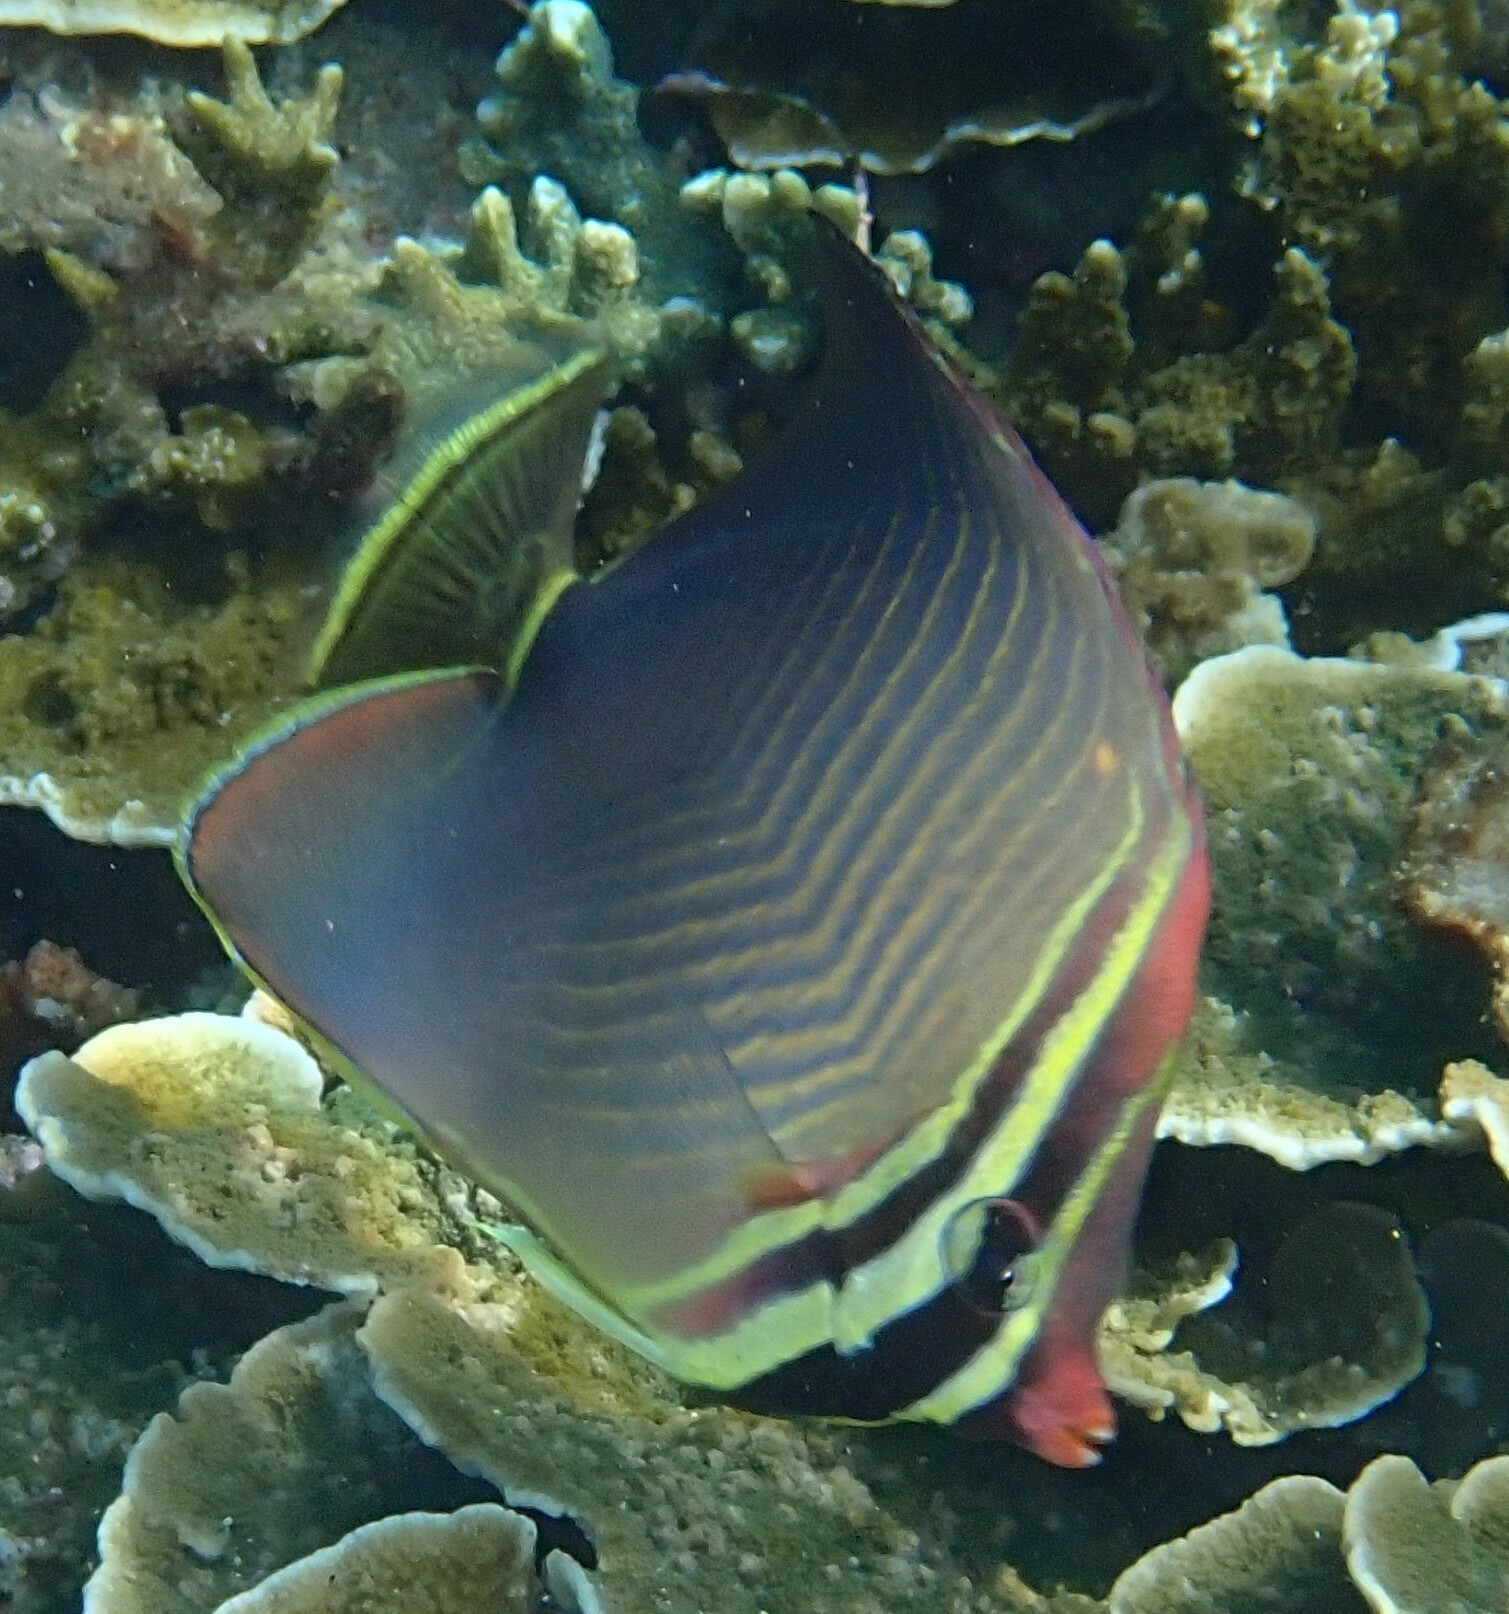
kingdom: Animalia
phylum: Chordata
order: Perciformes
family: Chaetodontidae
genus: Chaetodon
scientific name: Chaetodon baronessa
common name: Triangular butterflyfish
